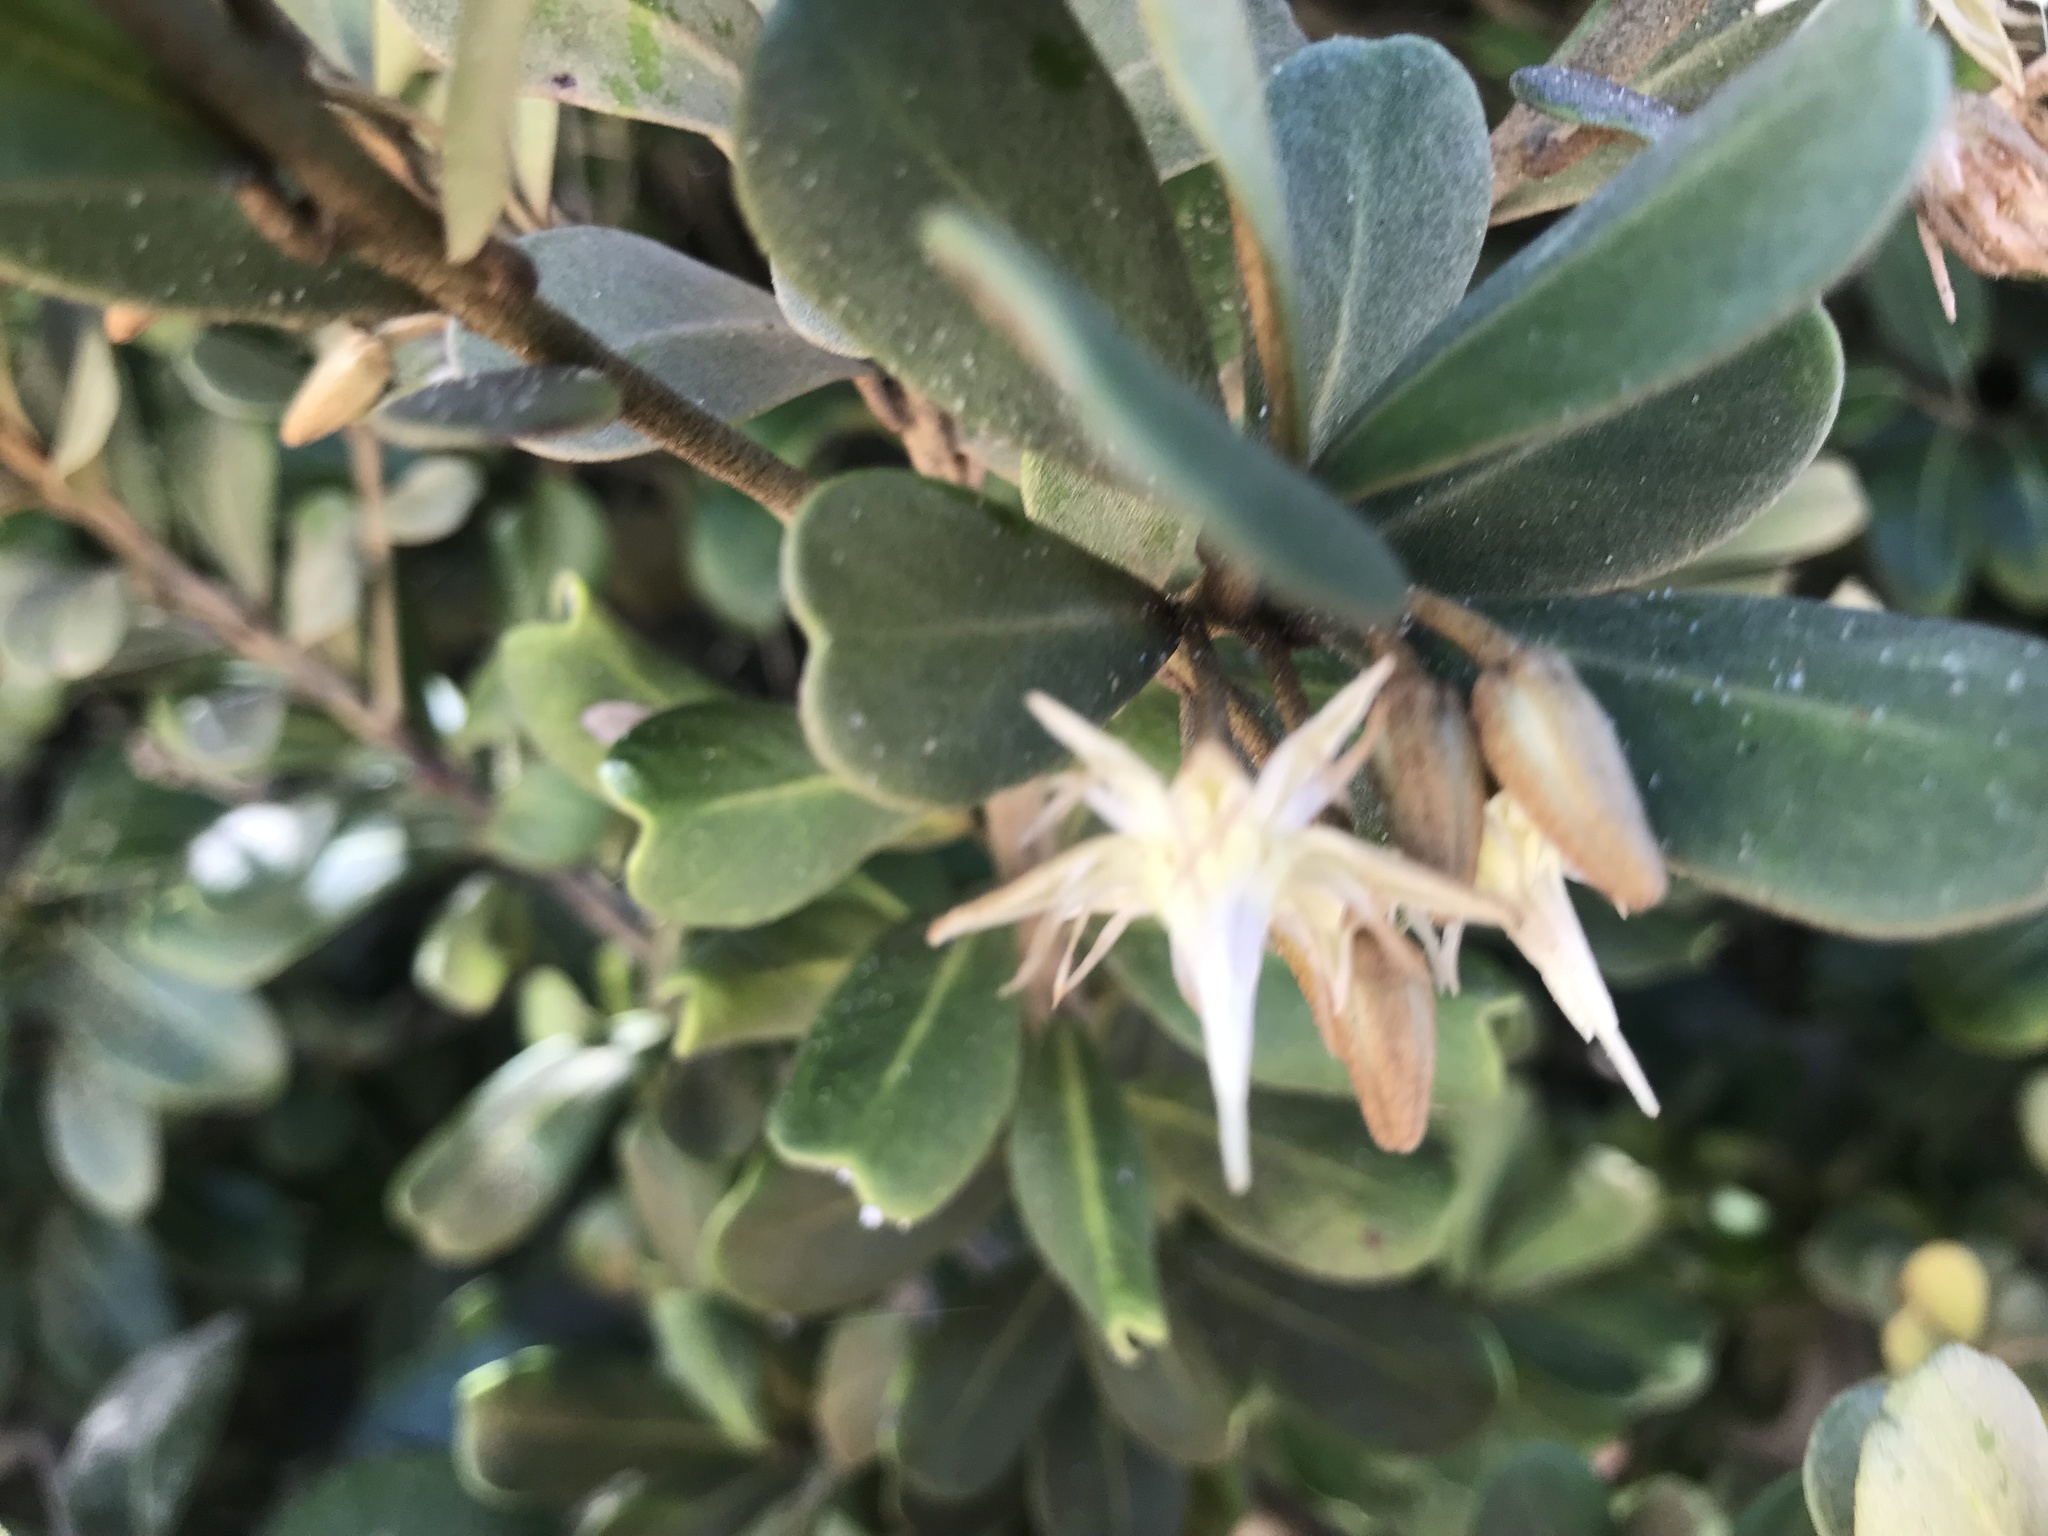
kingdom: Plantae
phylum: Tracheophyta
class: Magnoliopsida
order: Ericales
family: Sapotaceae
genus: Mimusops
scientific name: Mimusops caffra
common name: Coastal red milkwood
